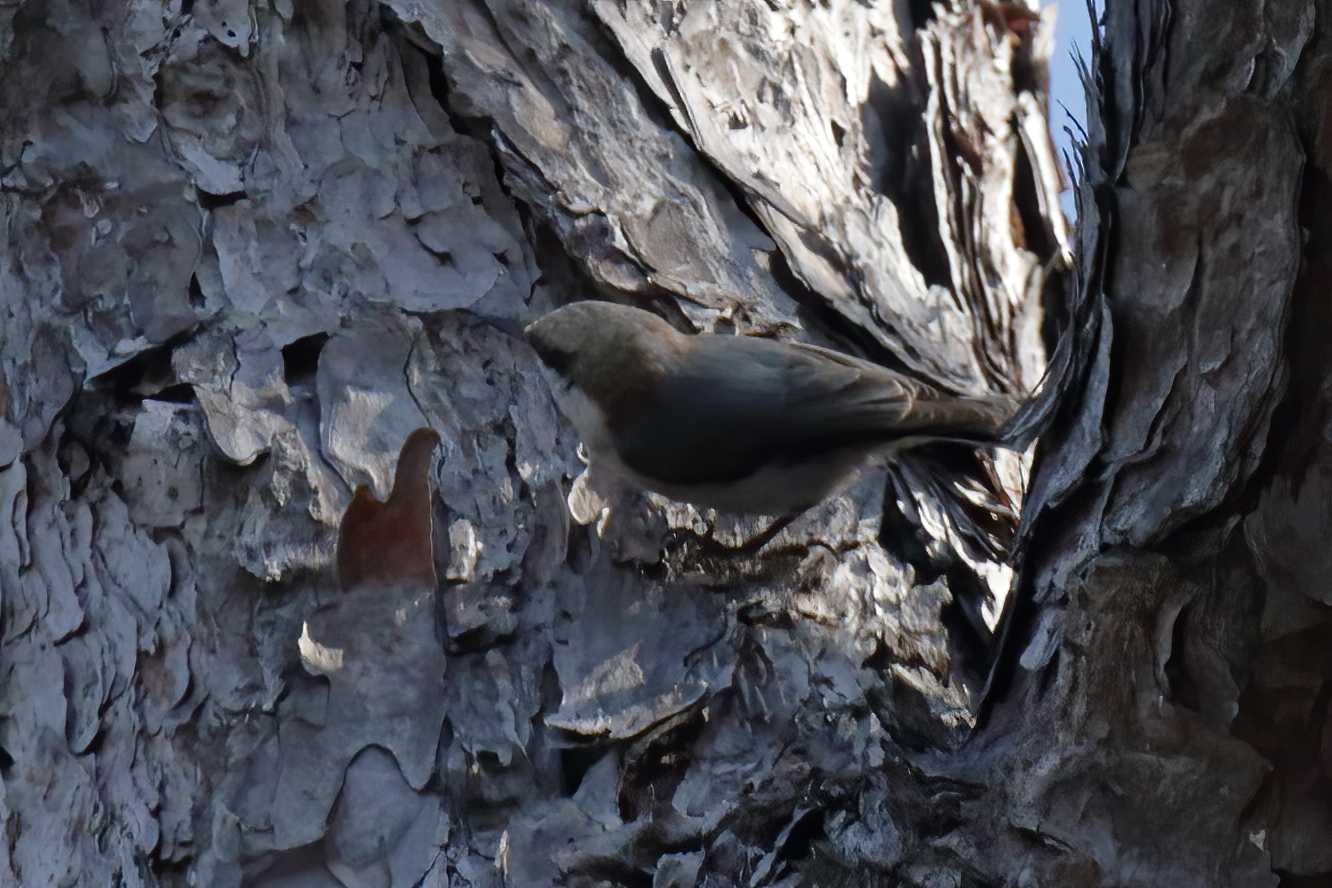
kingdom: Animalia
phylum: Chordata
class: Aves
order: Passeriformes
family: Sittidae
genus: Sitta
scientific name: Sitta pusilla
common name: Brown-headed nuthatch
